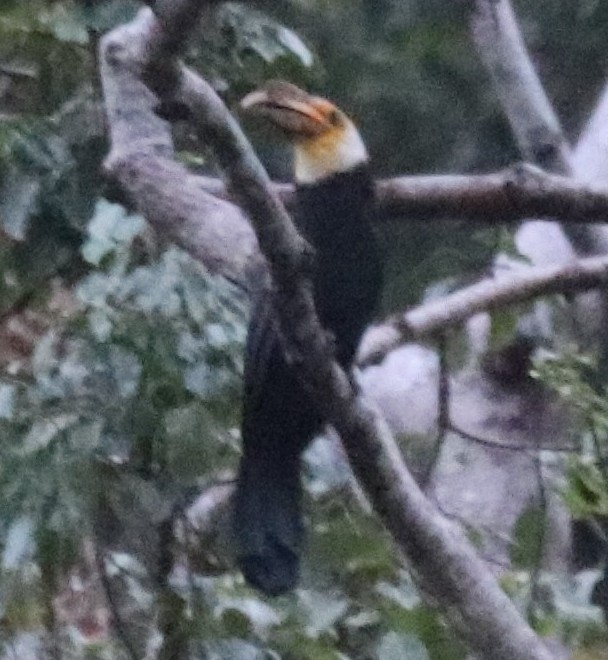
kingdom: Animalia
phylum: Chordata
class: Aves
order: Bucerotiformes
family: Bucerotidae
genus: Rhabdotorrhinus
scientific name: Rhabdotorrhinus exarhatus
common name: Sulawesi hornbill
